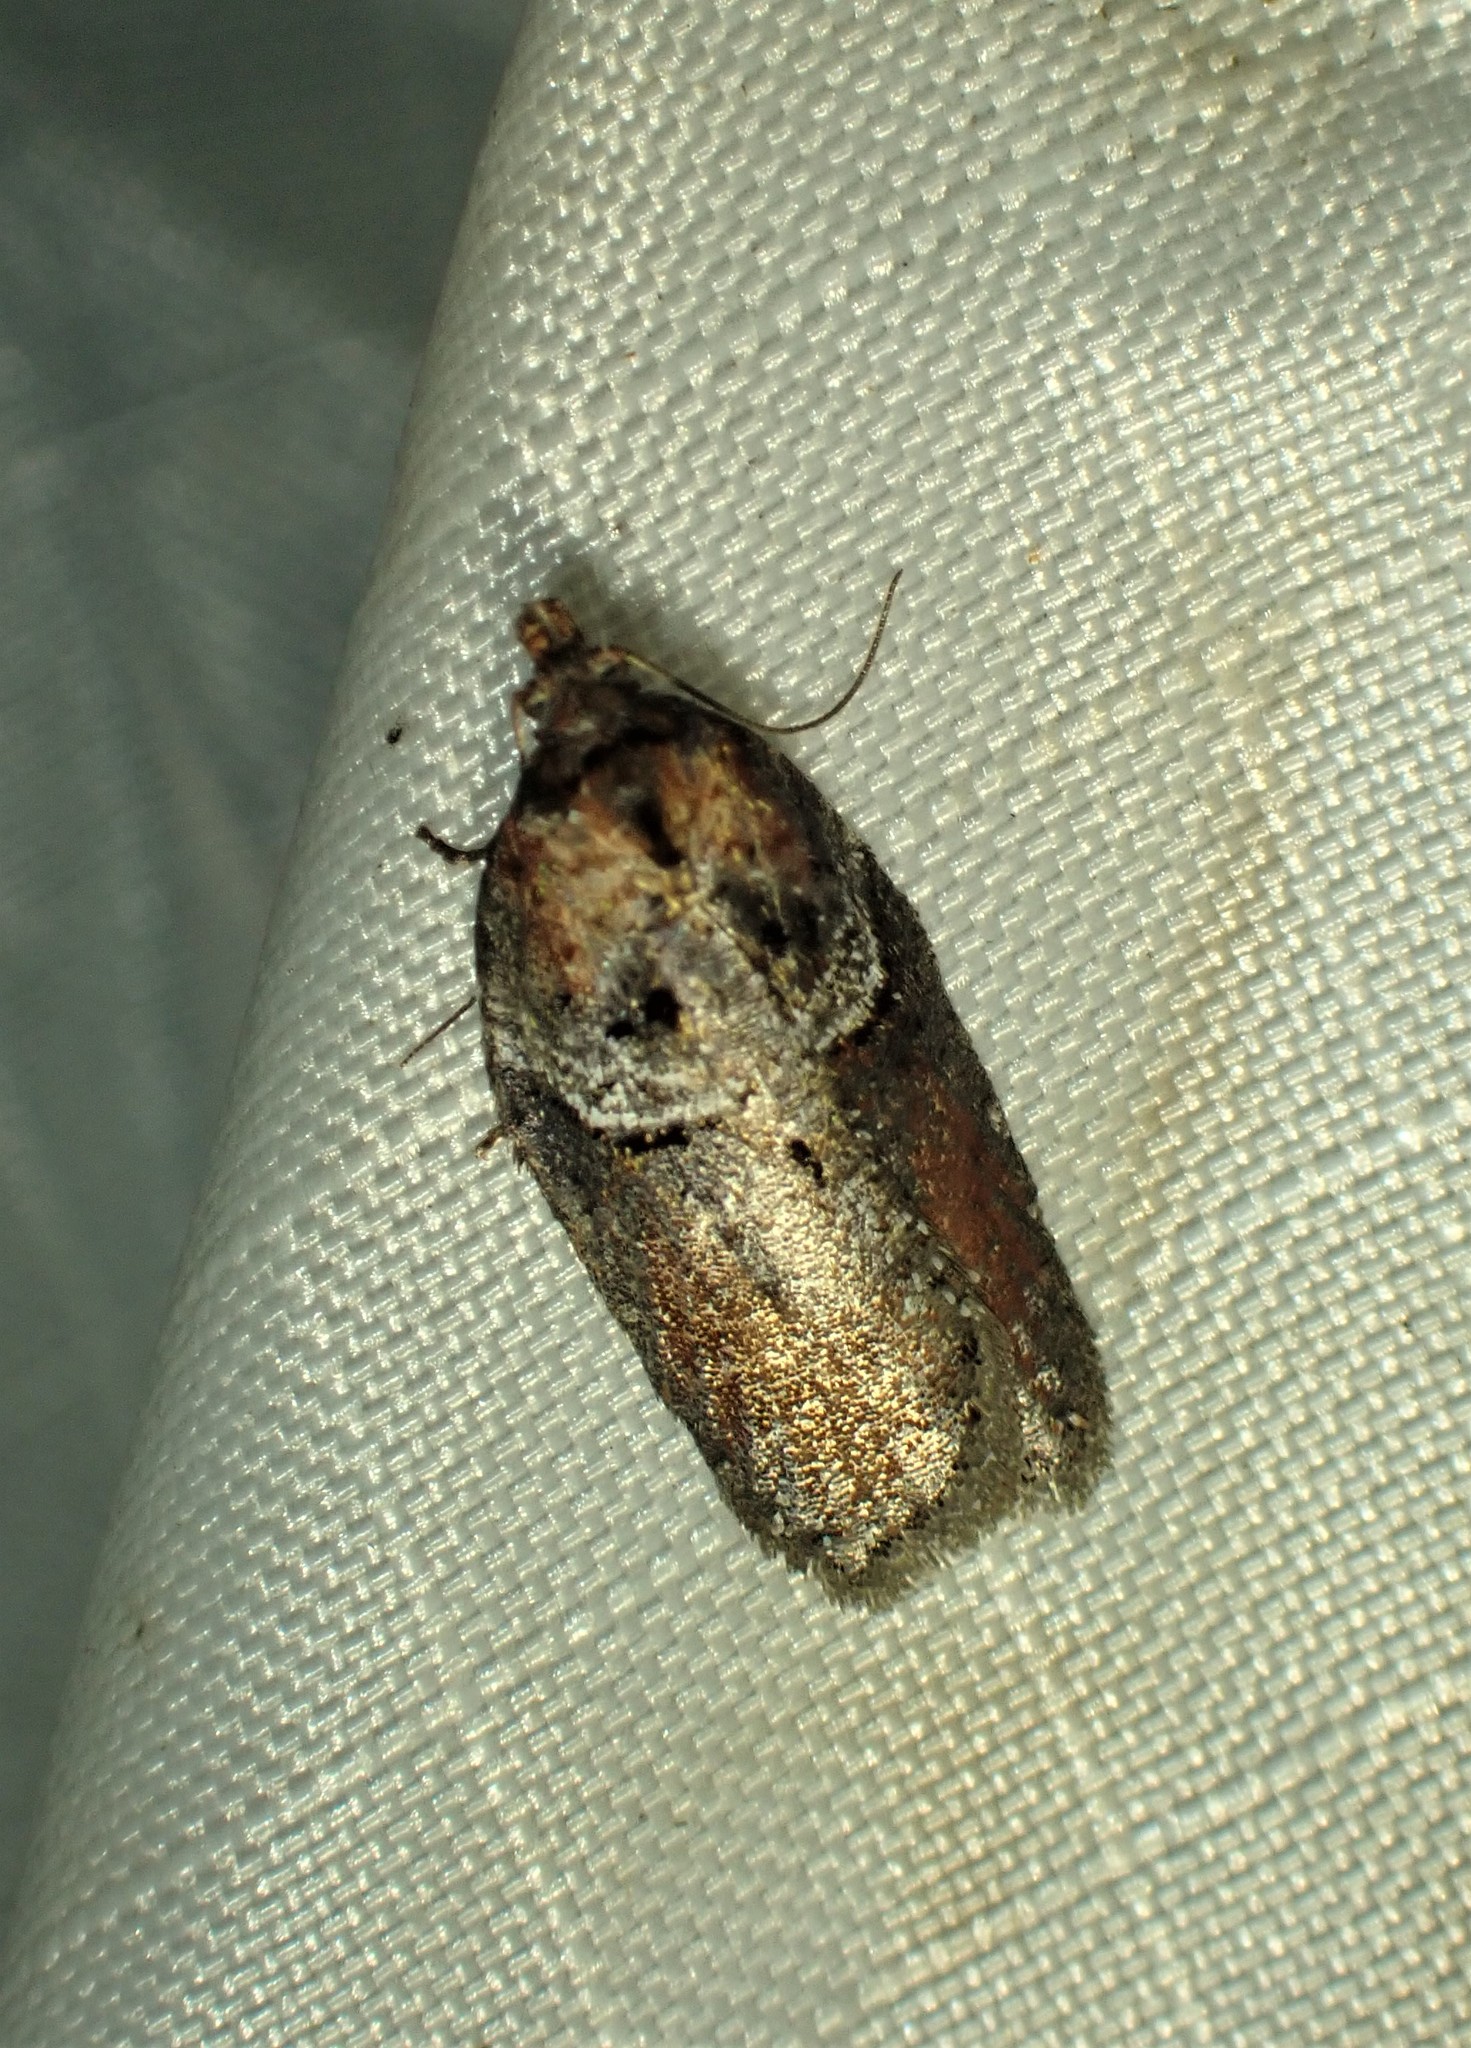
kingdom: Animalia
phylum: Arthropoda
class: Insecta
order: Lepidoptera
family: Tortricidae
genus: Acleris
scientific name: Acleris celiana
